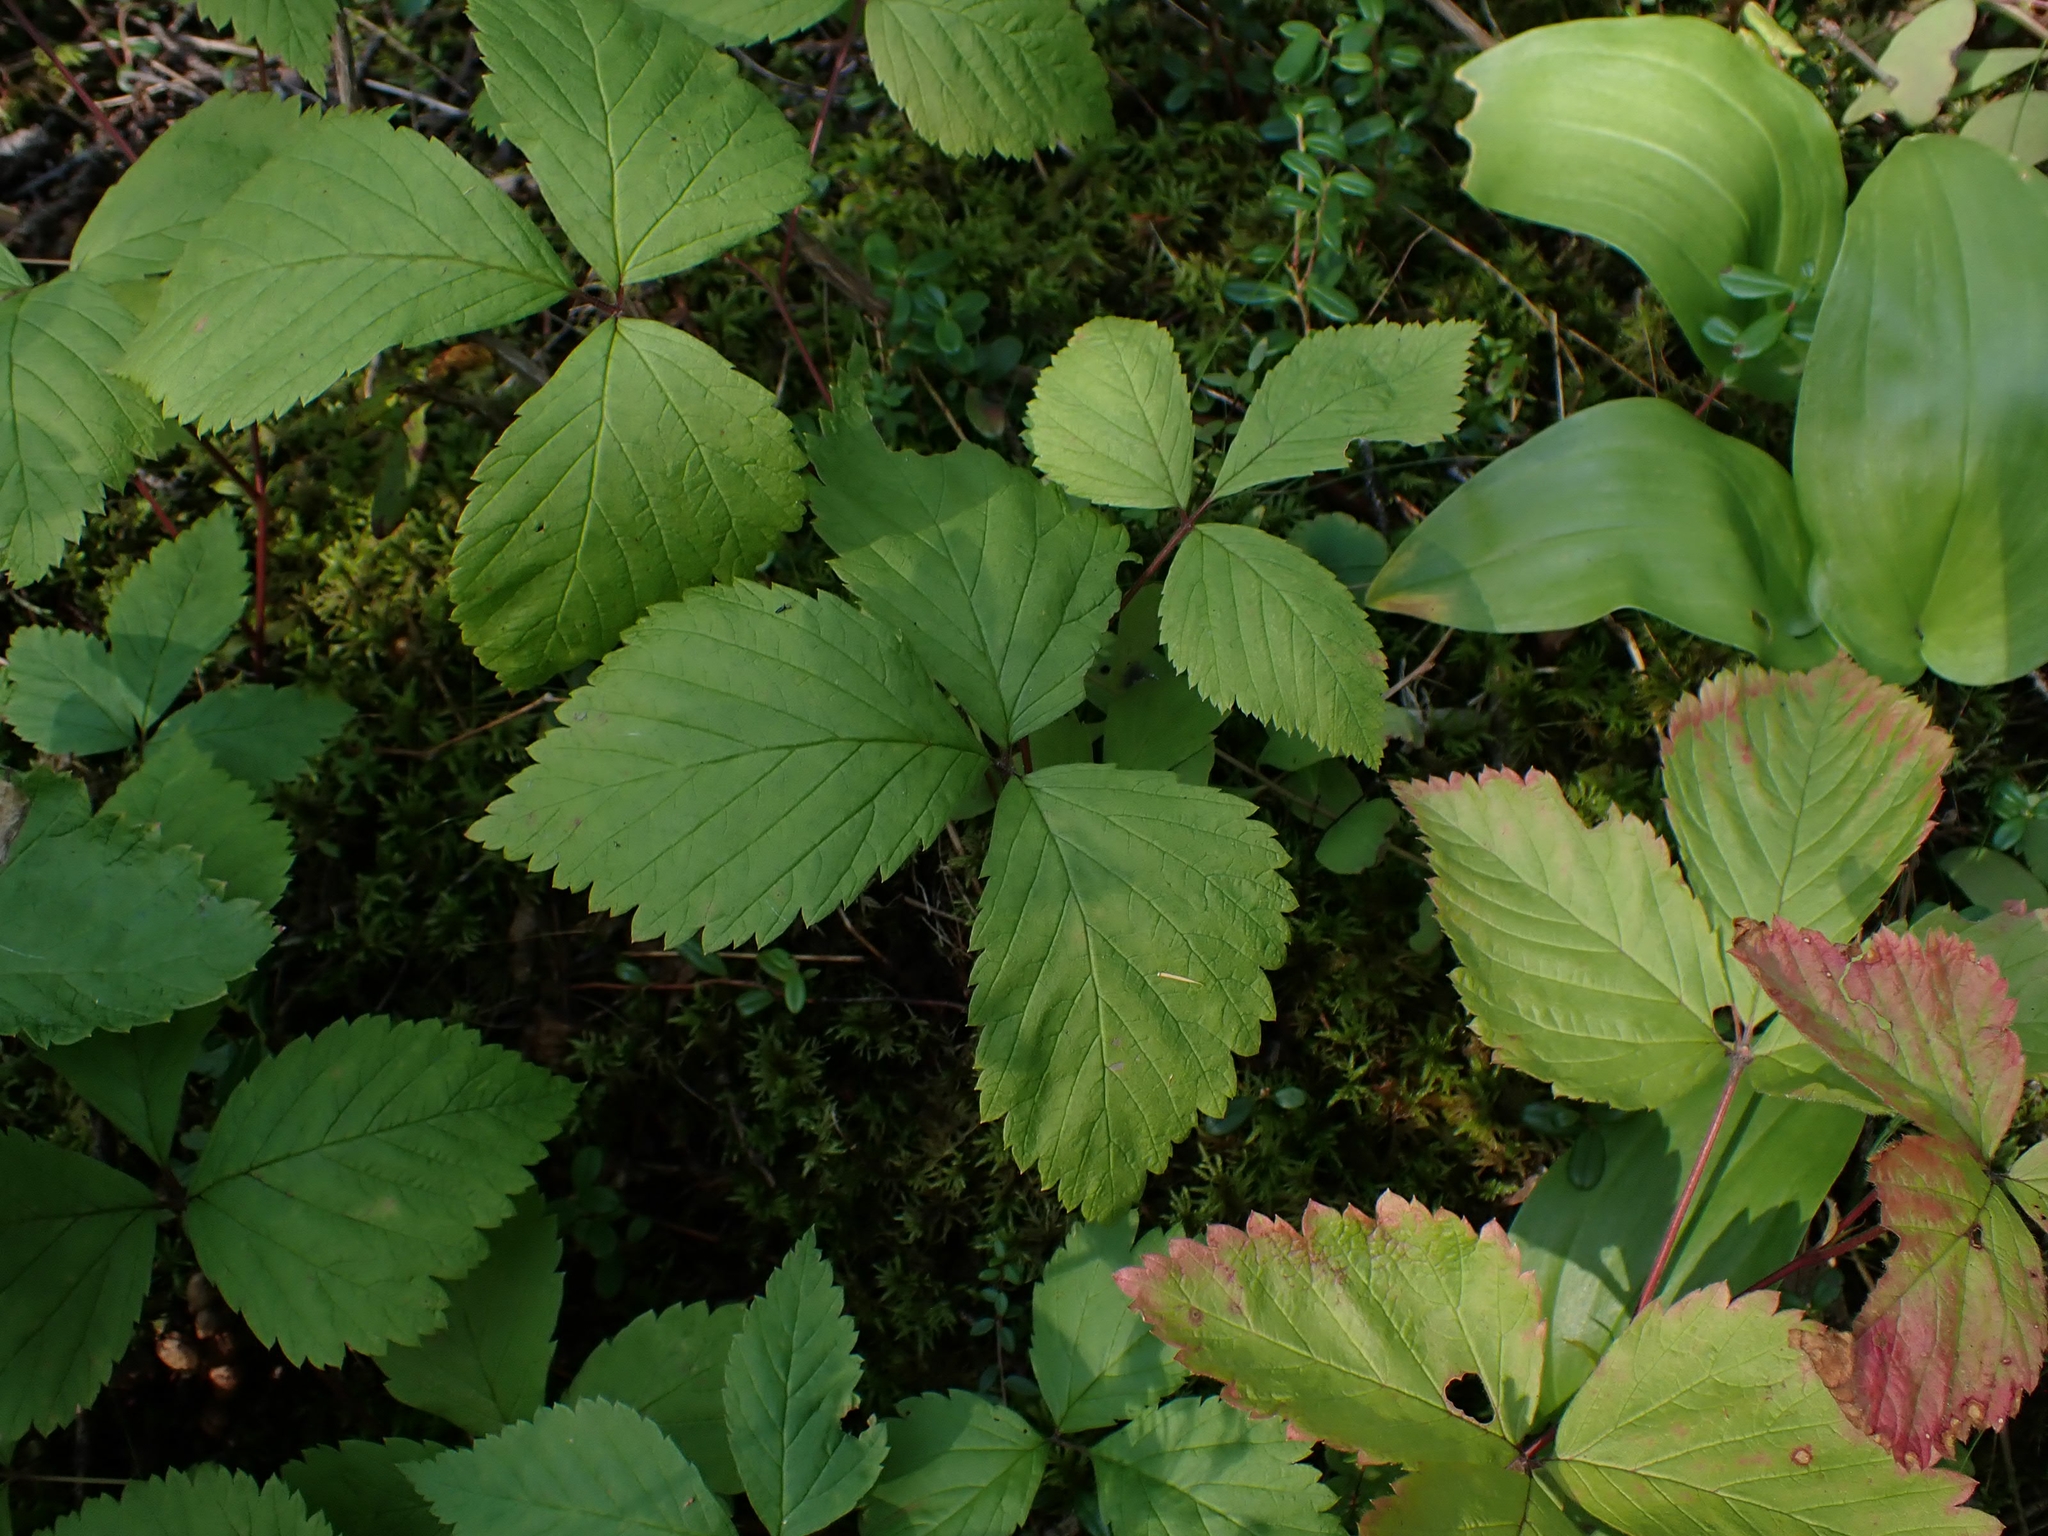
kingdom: Plantae
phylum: Tracheophyta
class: Magnoliopsida
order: Rosales
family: Rosaceae
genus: Rubus
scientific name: Rubus pubescens
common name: Dwarf raspberry
